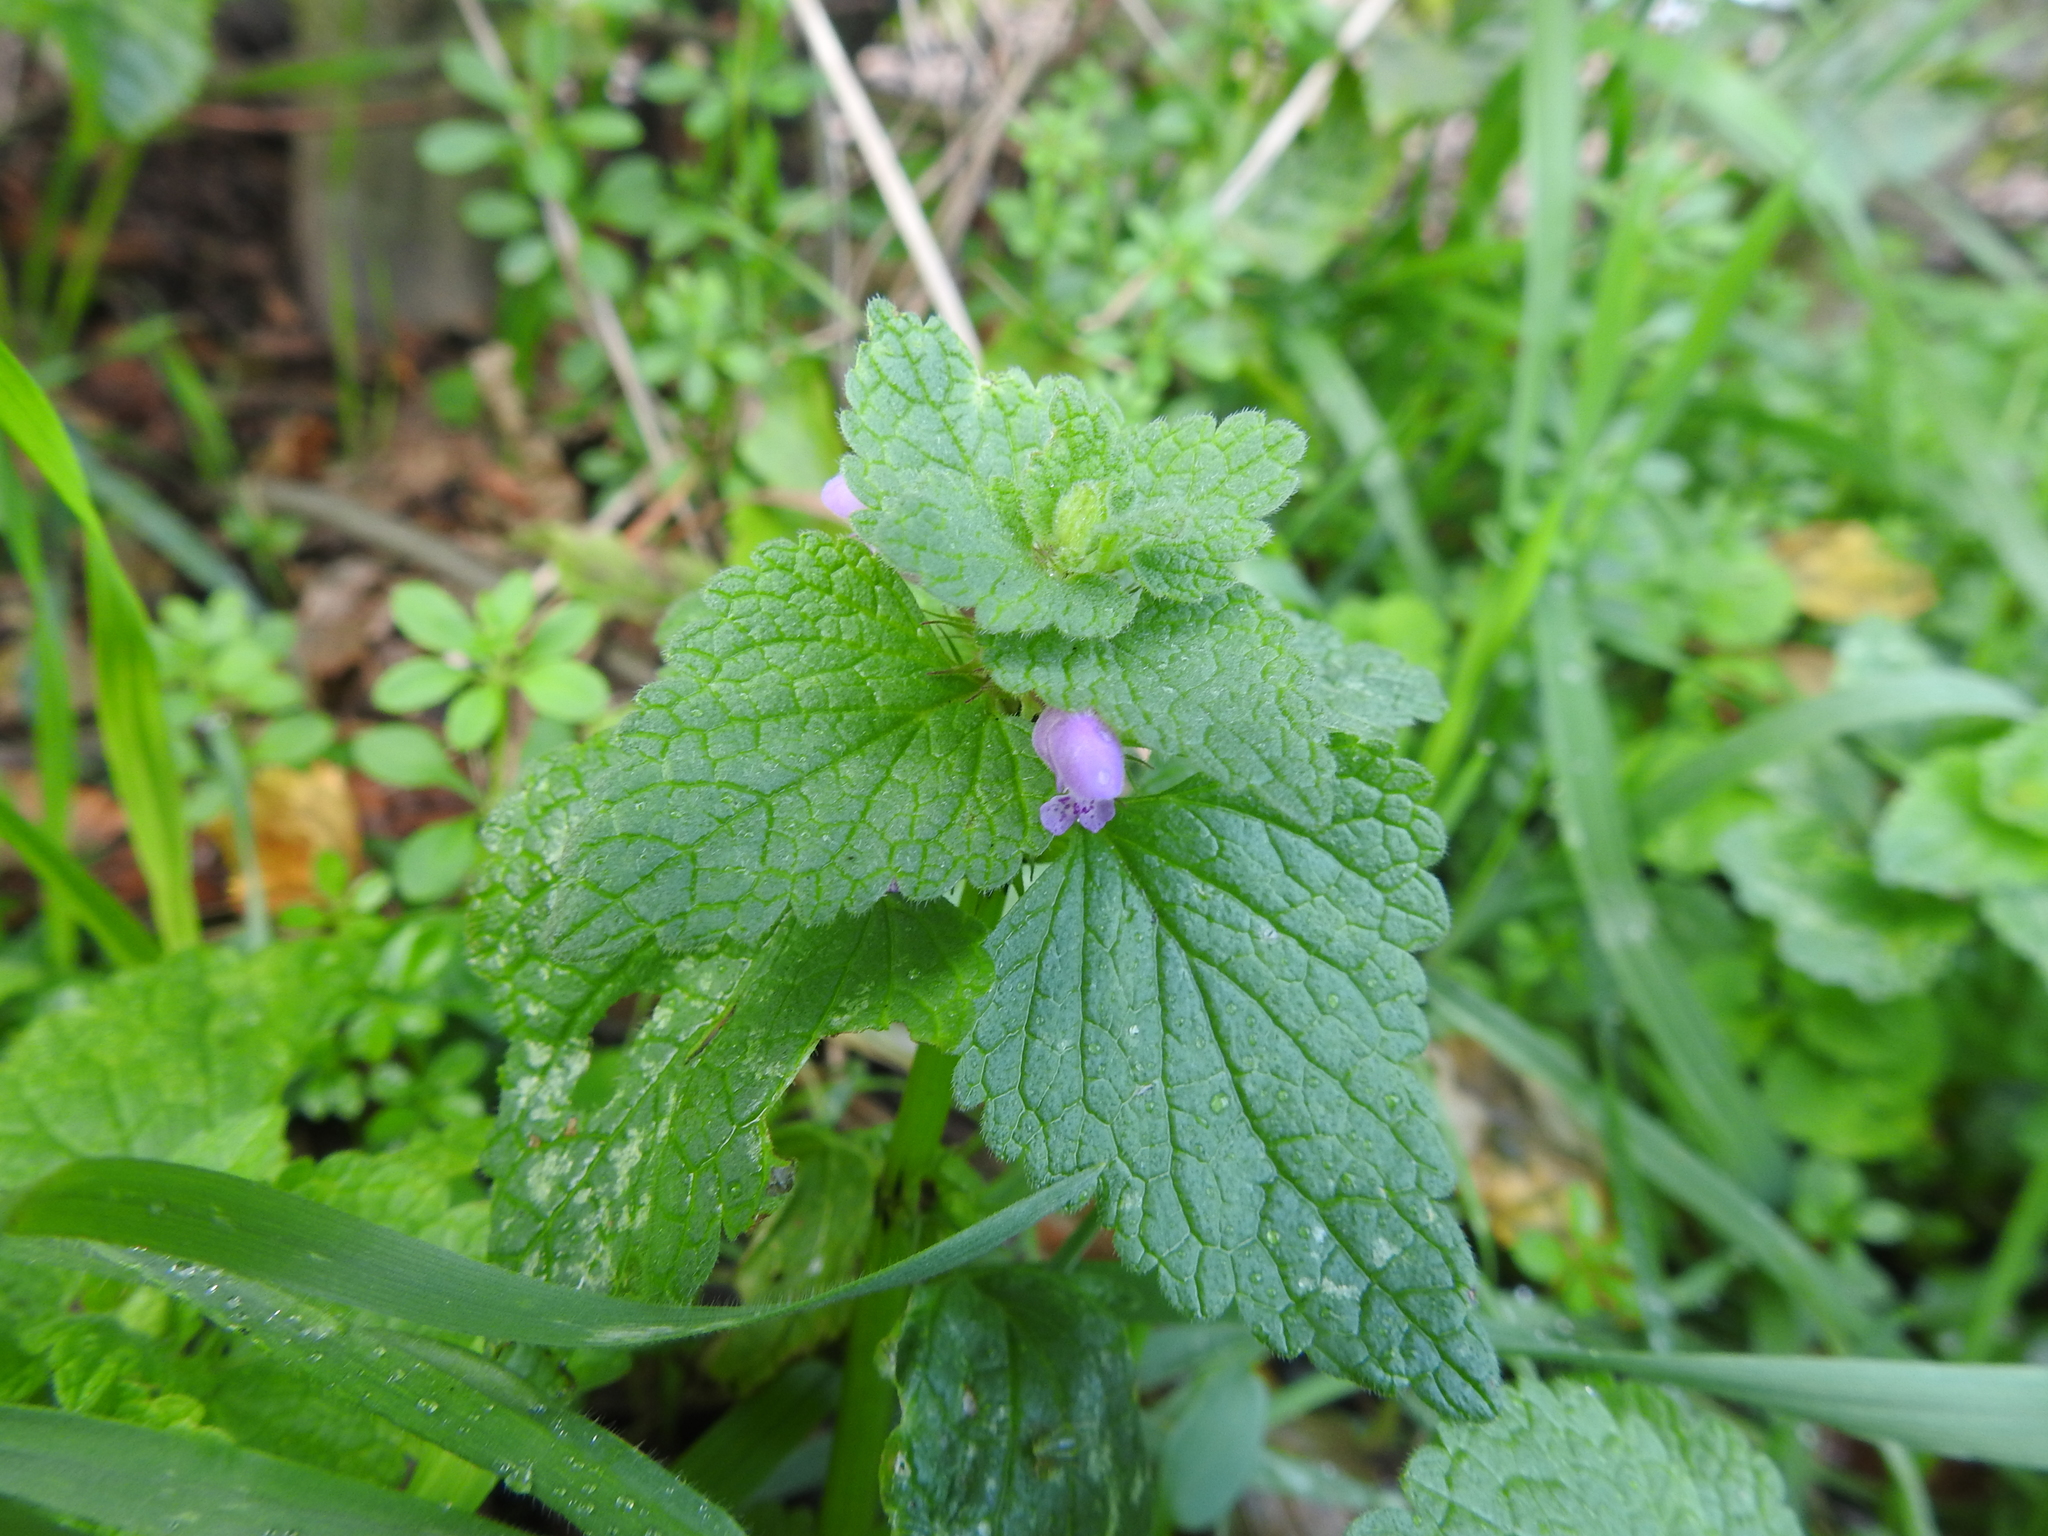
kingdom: Plantae
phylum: Tracheophyta
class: Magnoliopsida
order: Lamiales
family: Lamiaceae
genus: Lamium
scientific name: Lamium purpureum
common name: Red dead-nettle
